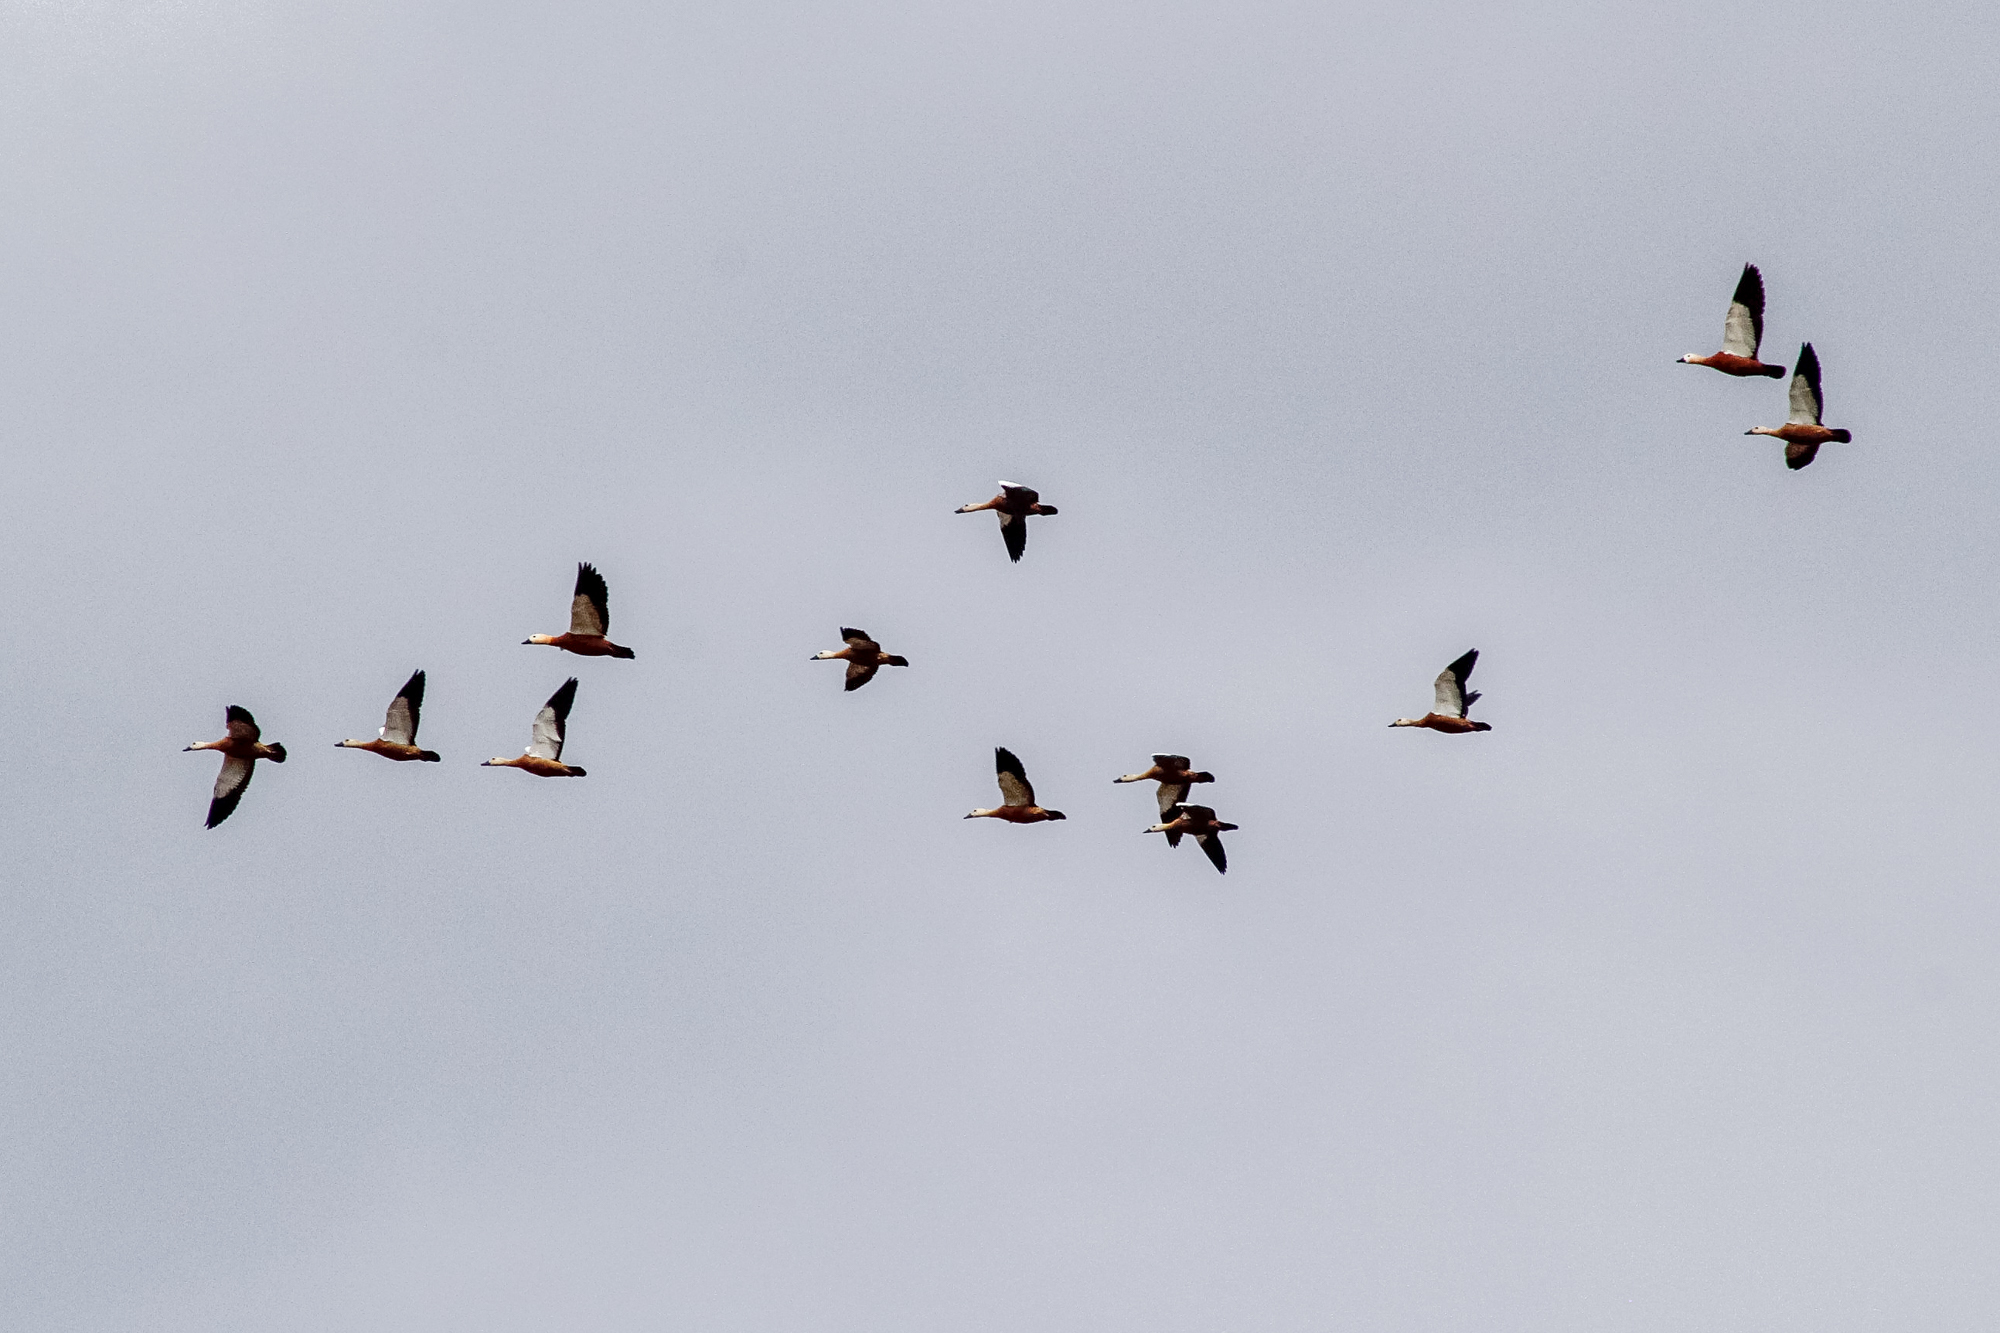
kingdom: Animalia
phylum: Chordata
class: Aves
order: Anseriformes
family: Anatidae
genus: Tadorna
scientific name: Tadorna ferruginea
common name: Ruddy shelduck
